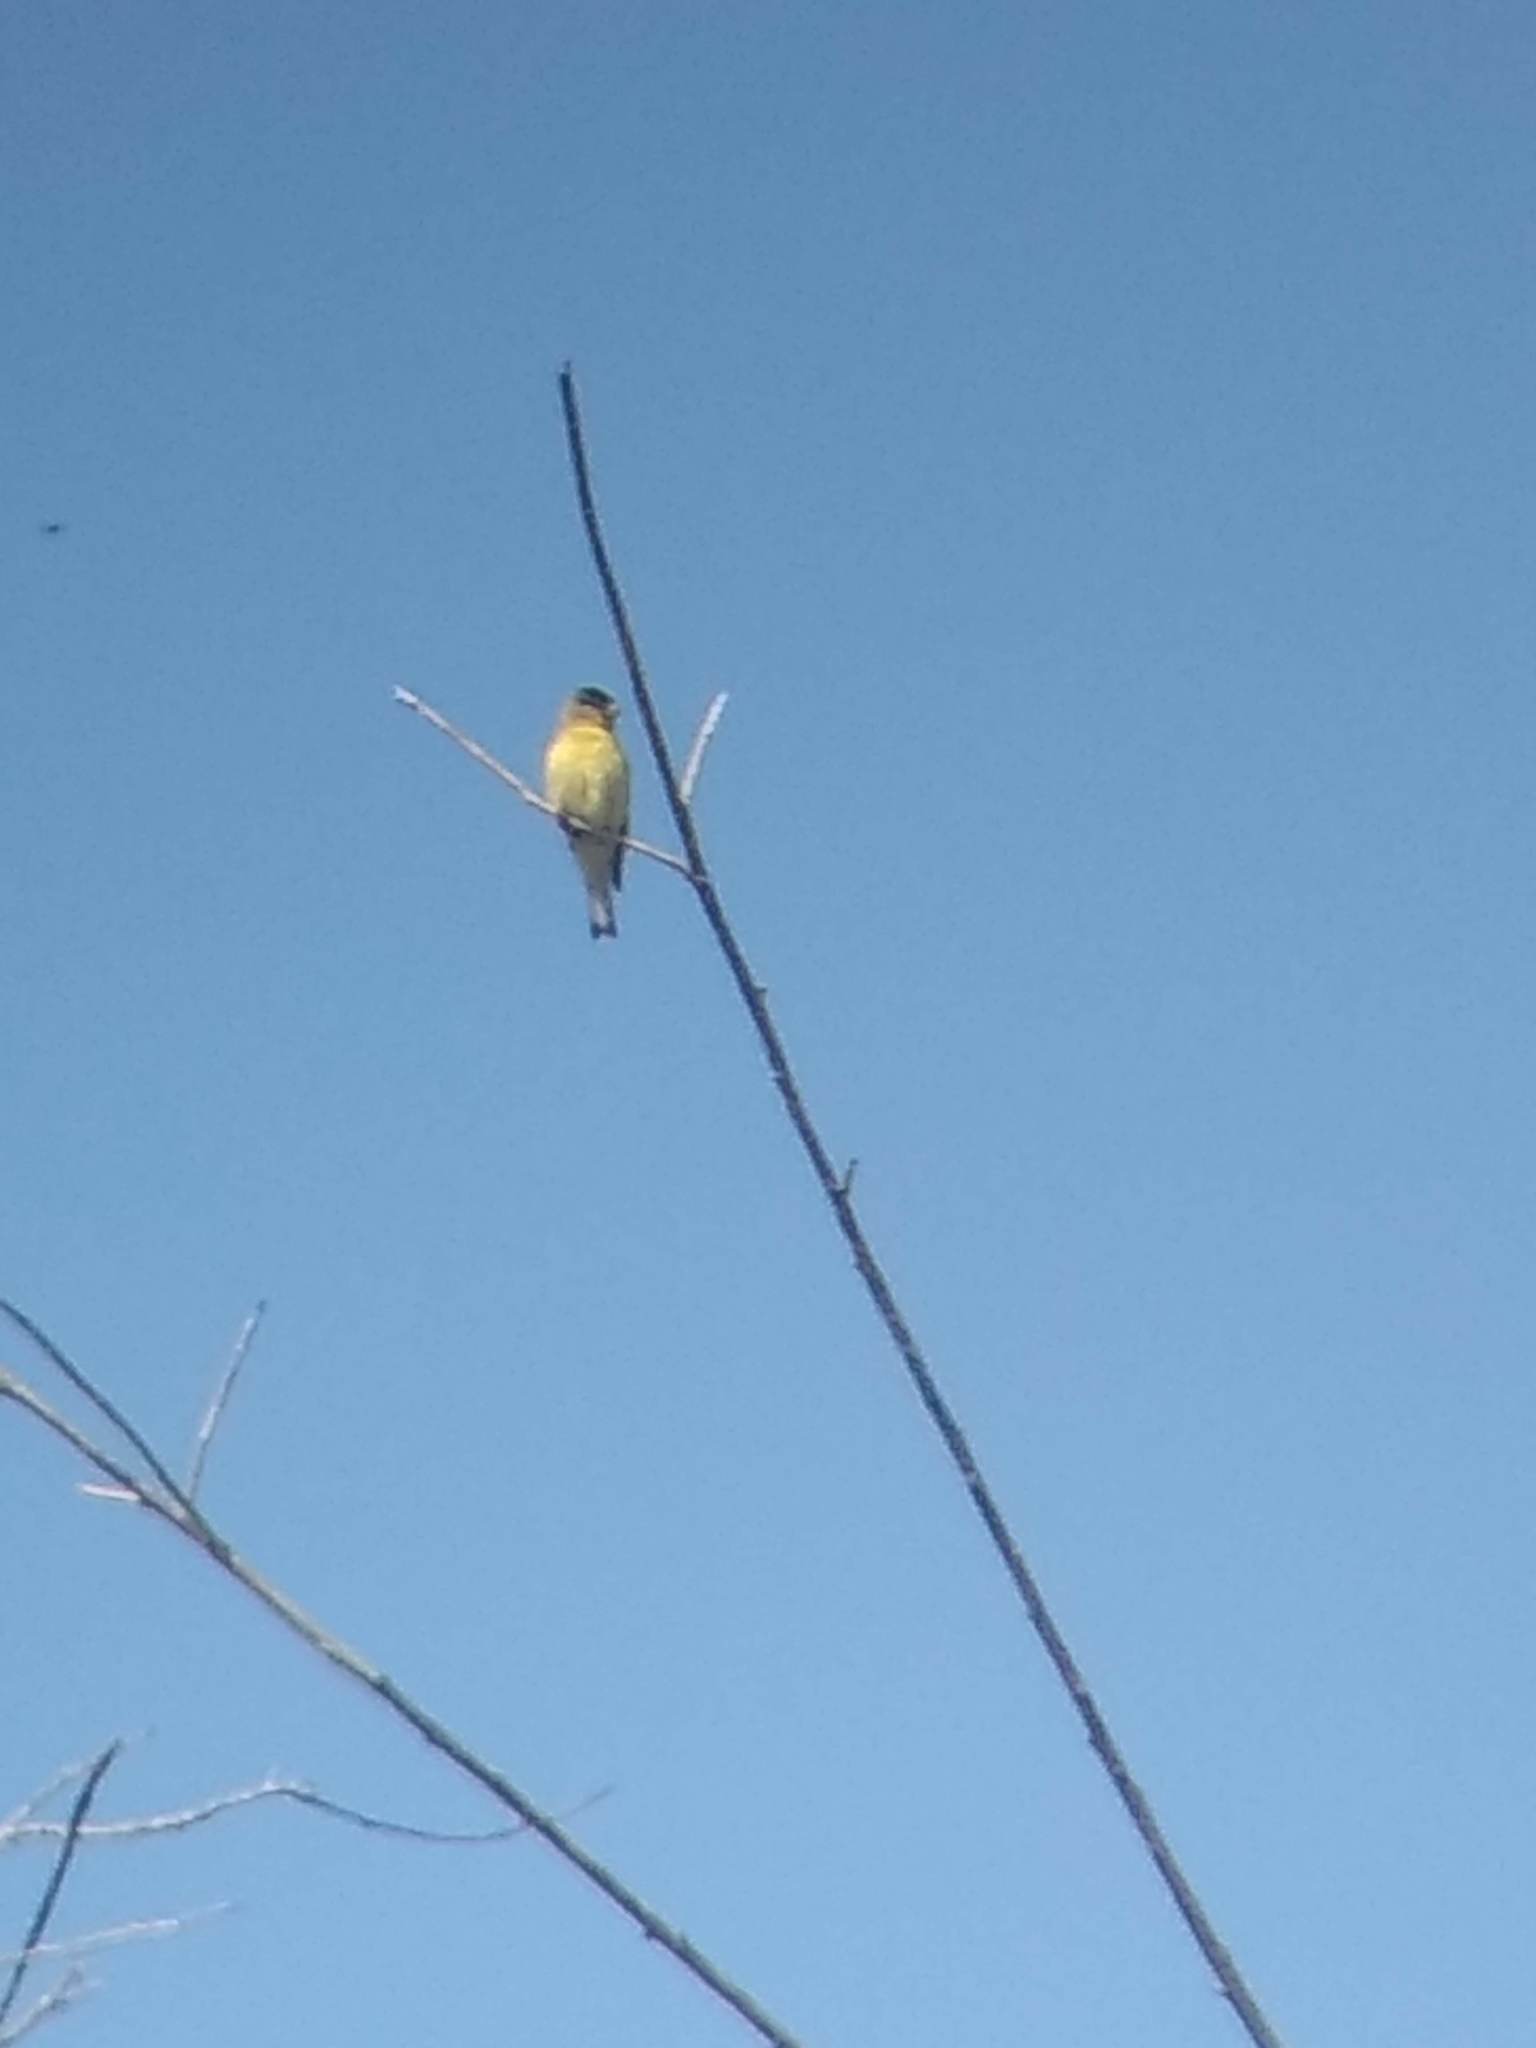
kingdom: Animalia
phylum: Chordata
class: Aves
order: Passeriformes
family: Fringillidae
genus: Spinus
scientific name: Spinus psaltria
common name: Lesser goldfinch
